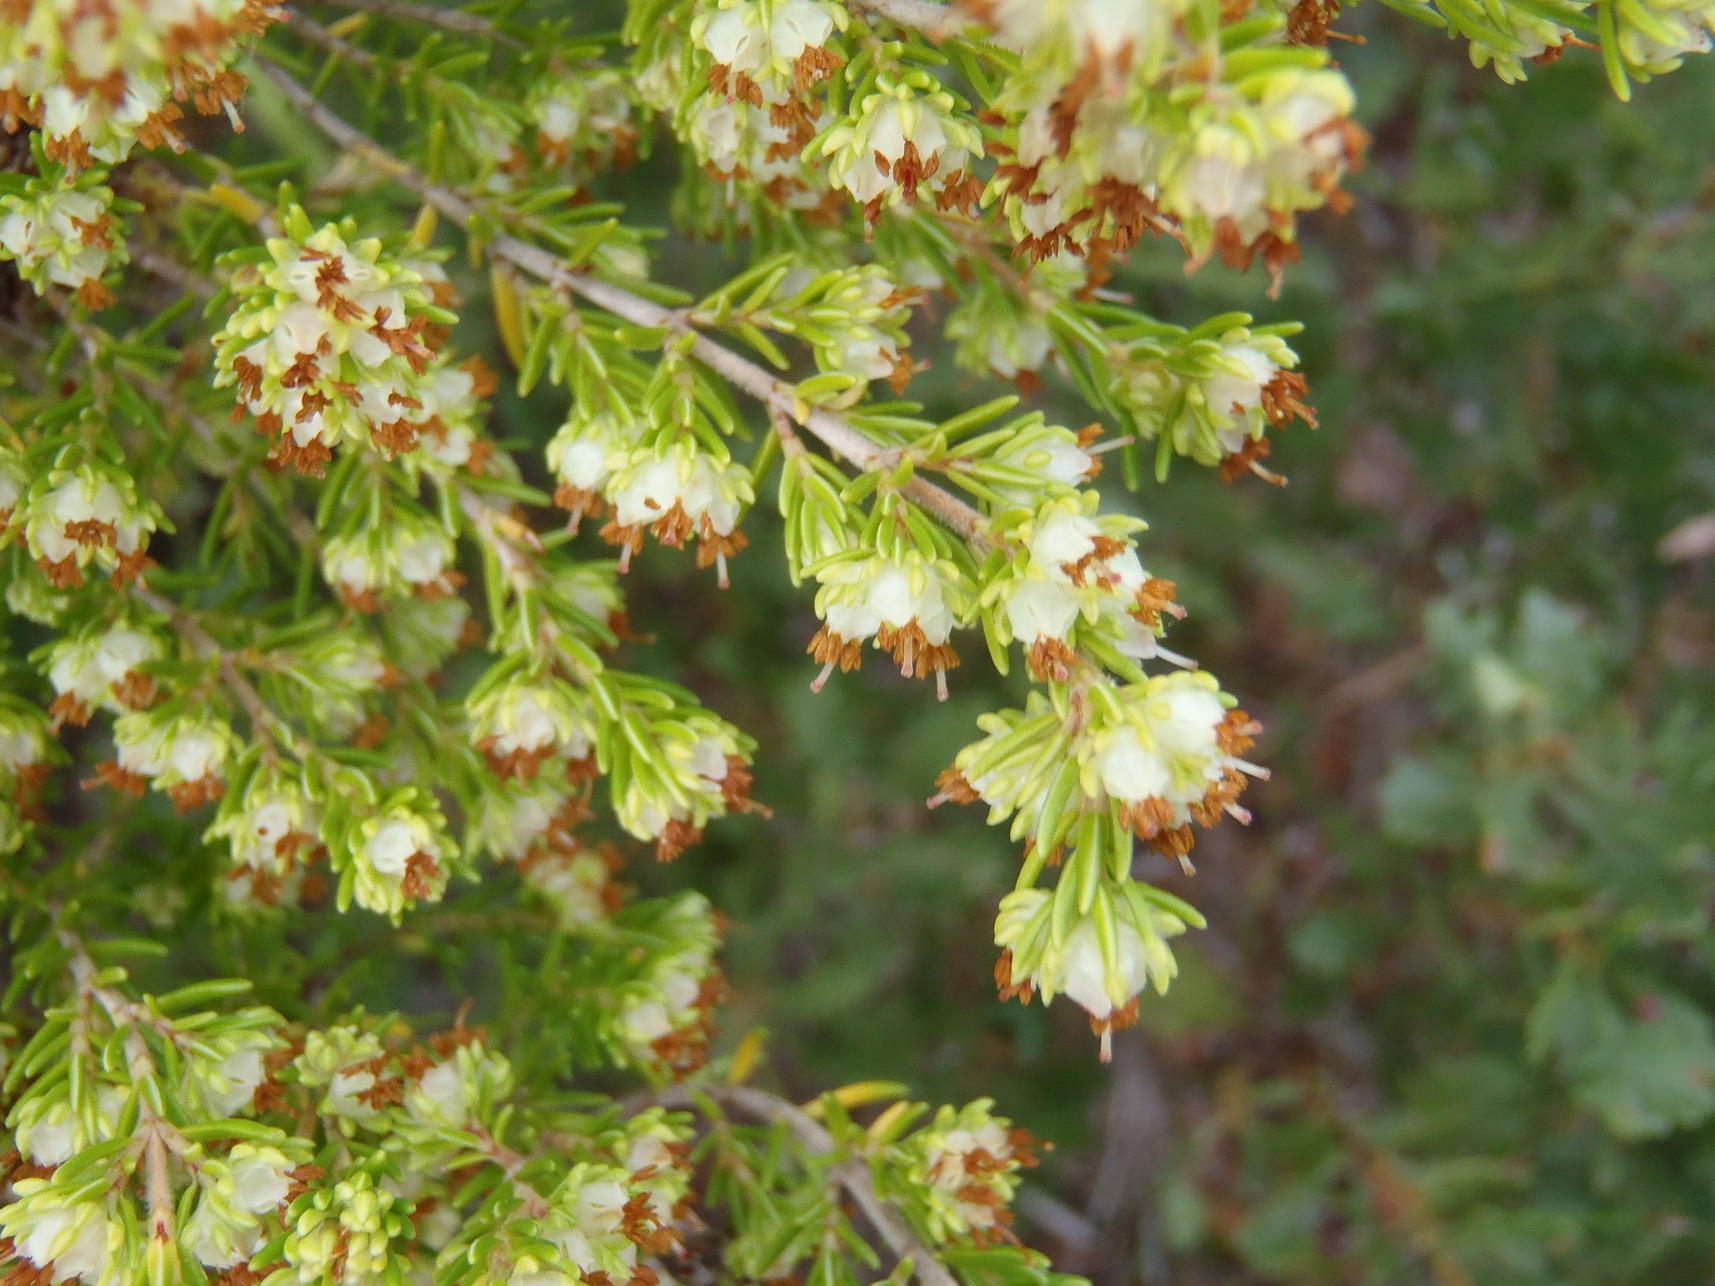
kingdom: Plantae
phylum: Tracheophyta
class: Magnoliopsida
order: Ericales
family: Ericaceae
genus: Erica
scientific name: Erica glumiflora
